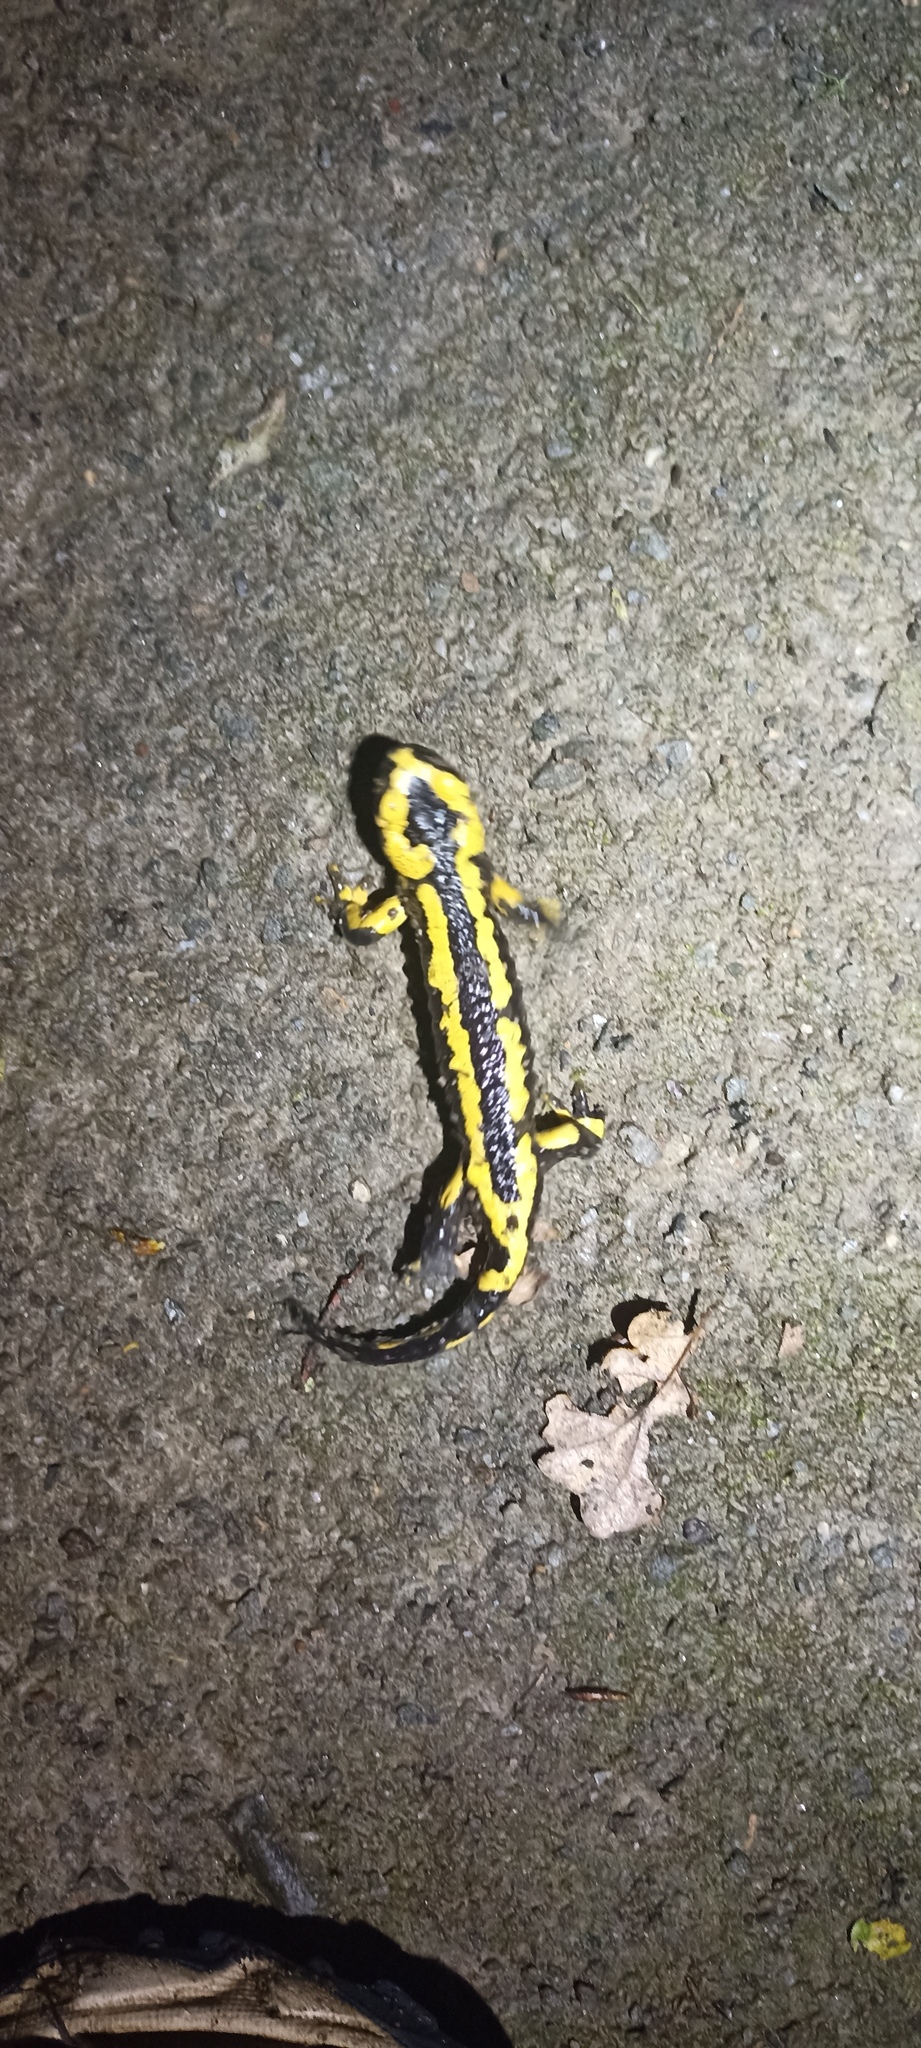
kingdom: Animalia
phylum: Chordata
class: Amphibia
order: Caudata
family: Salamandridae
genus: Salamandra
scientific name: Salamandra salamandra
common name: Fire salamander
